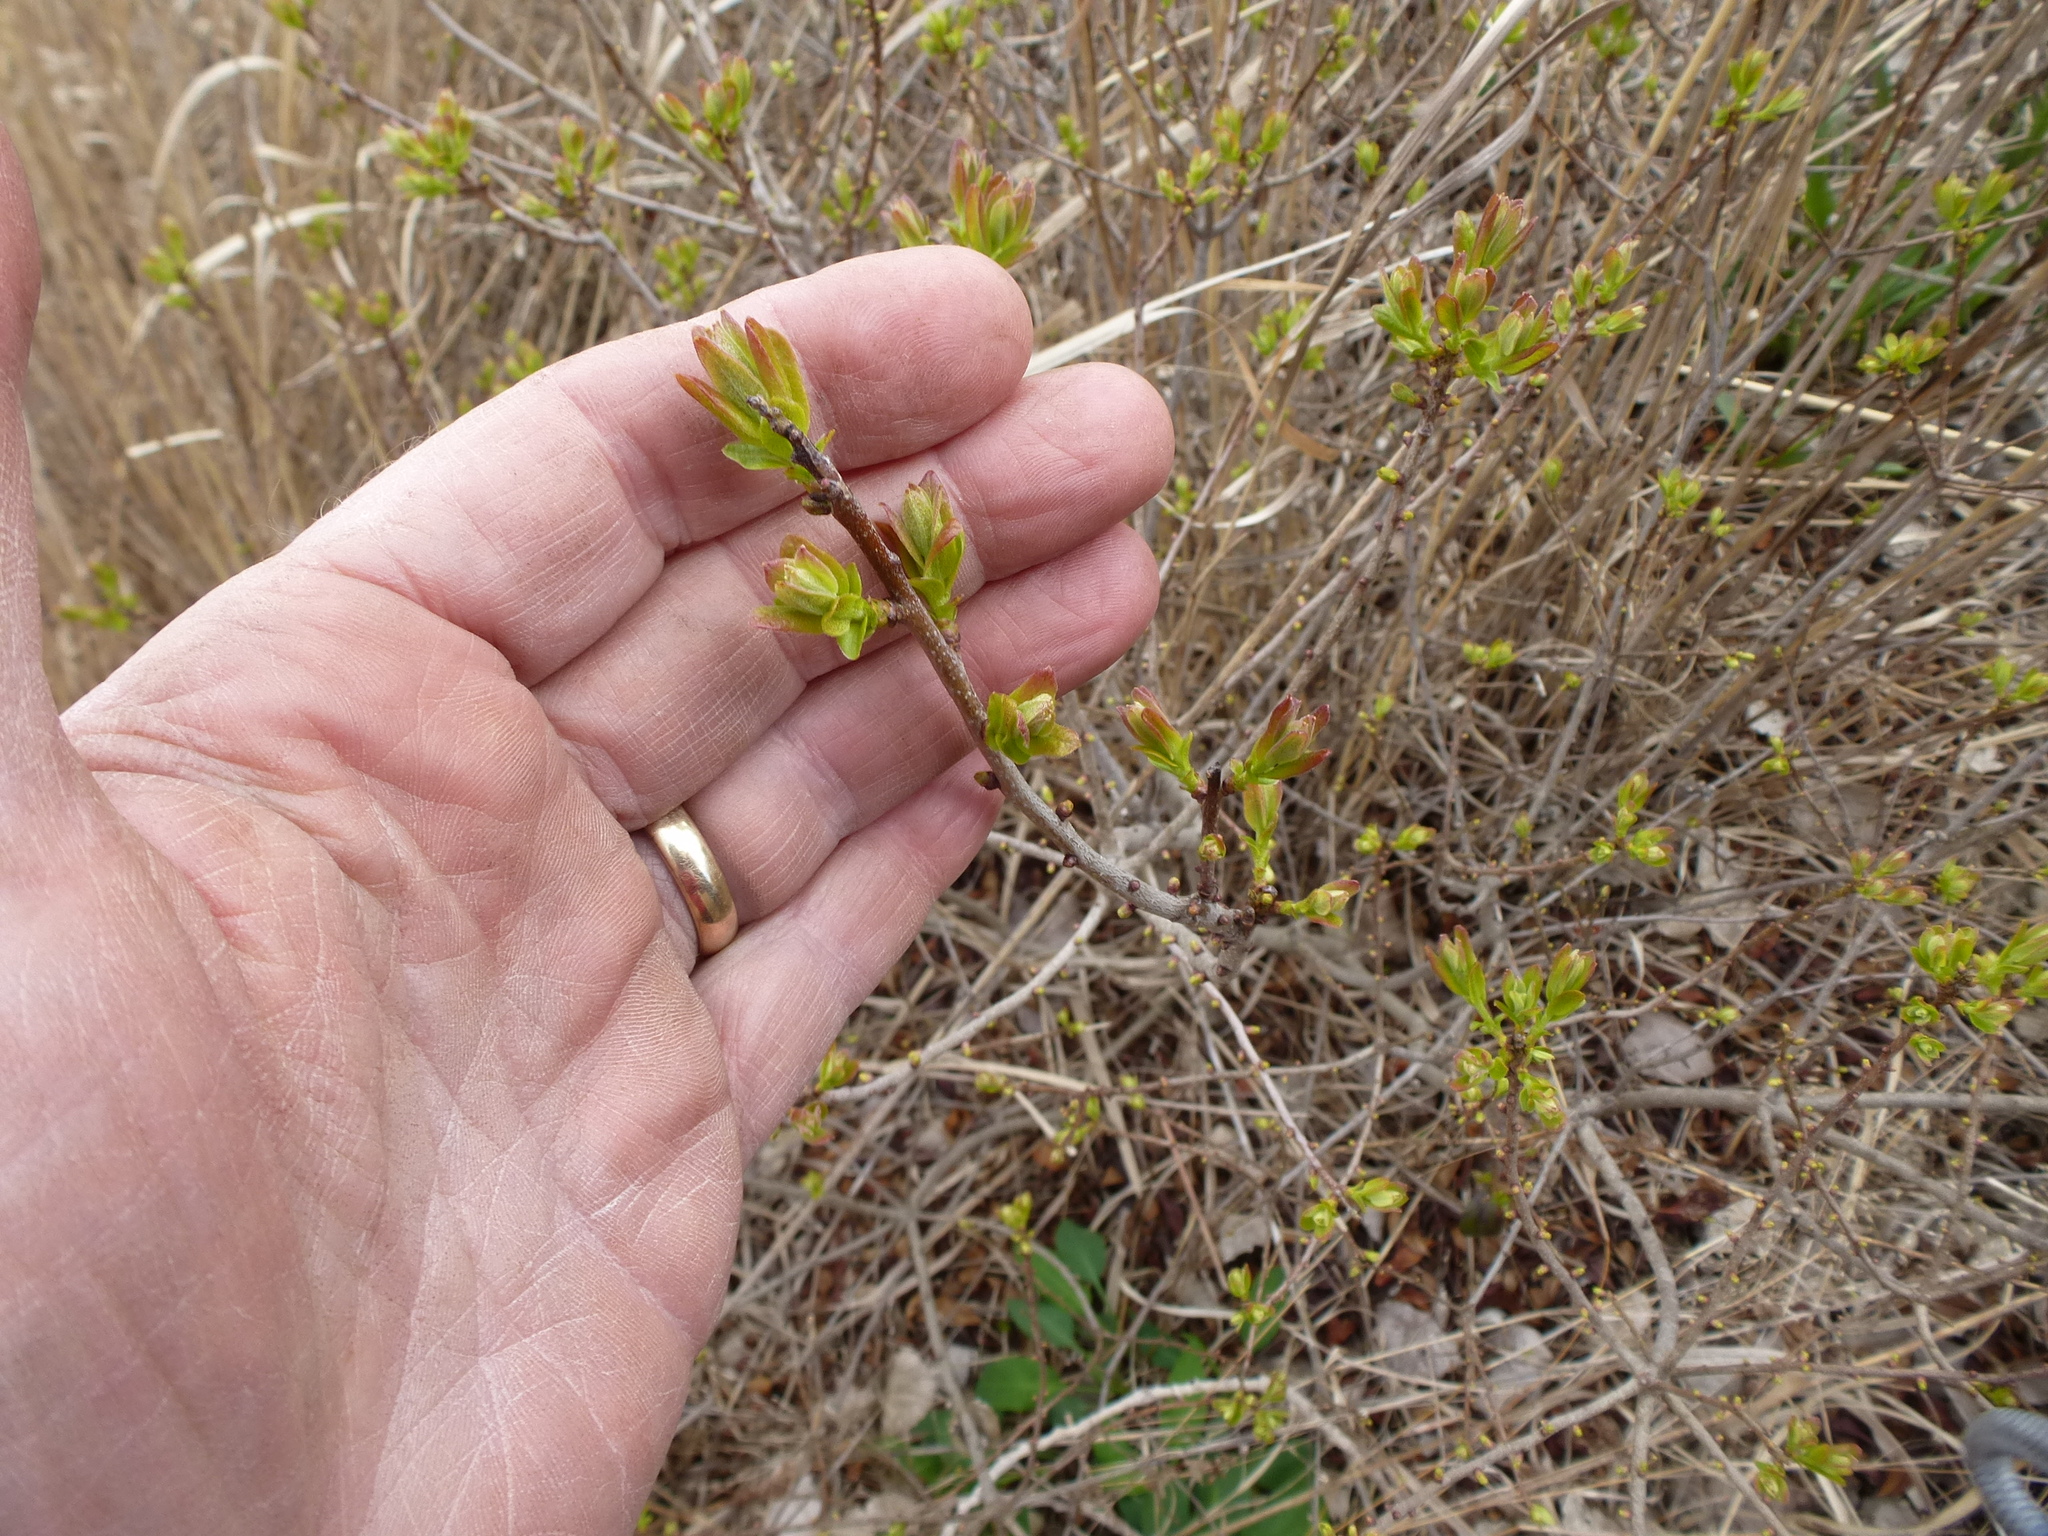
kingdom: Plantae
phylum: Tracheophyta
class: Magnoliopsida
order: Fagales
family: Myricaceae
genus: Morella
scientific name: Morella pensylvanica
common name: Northern bayberry
